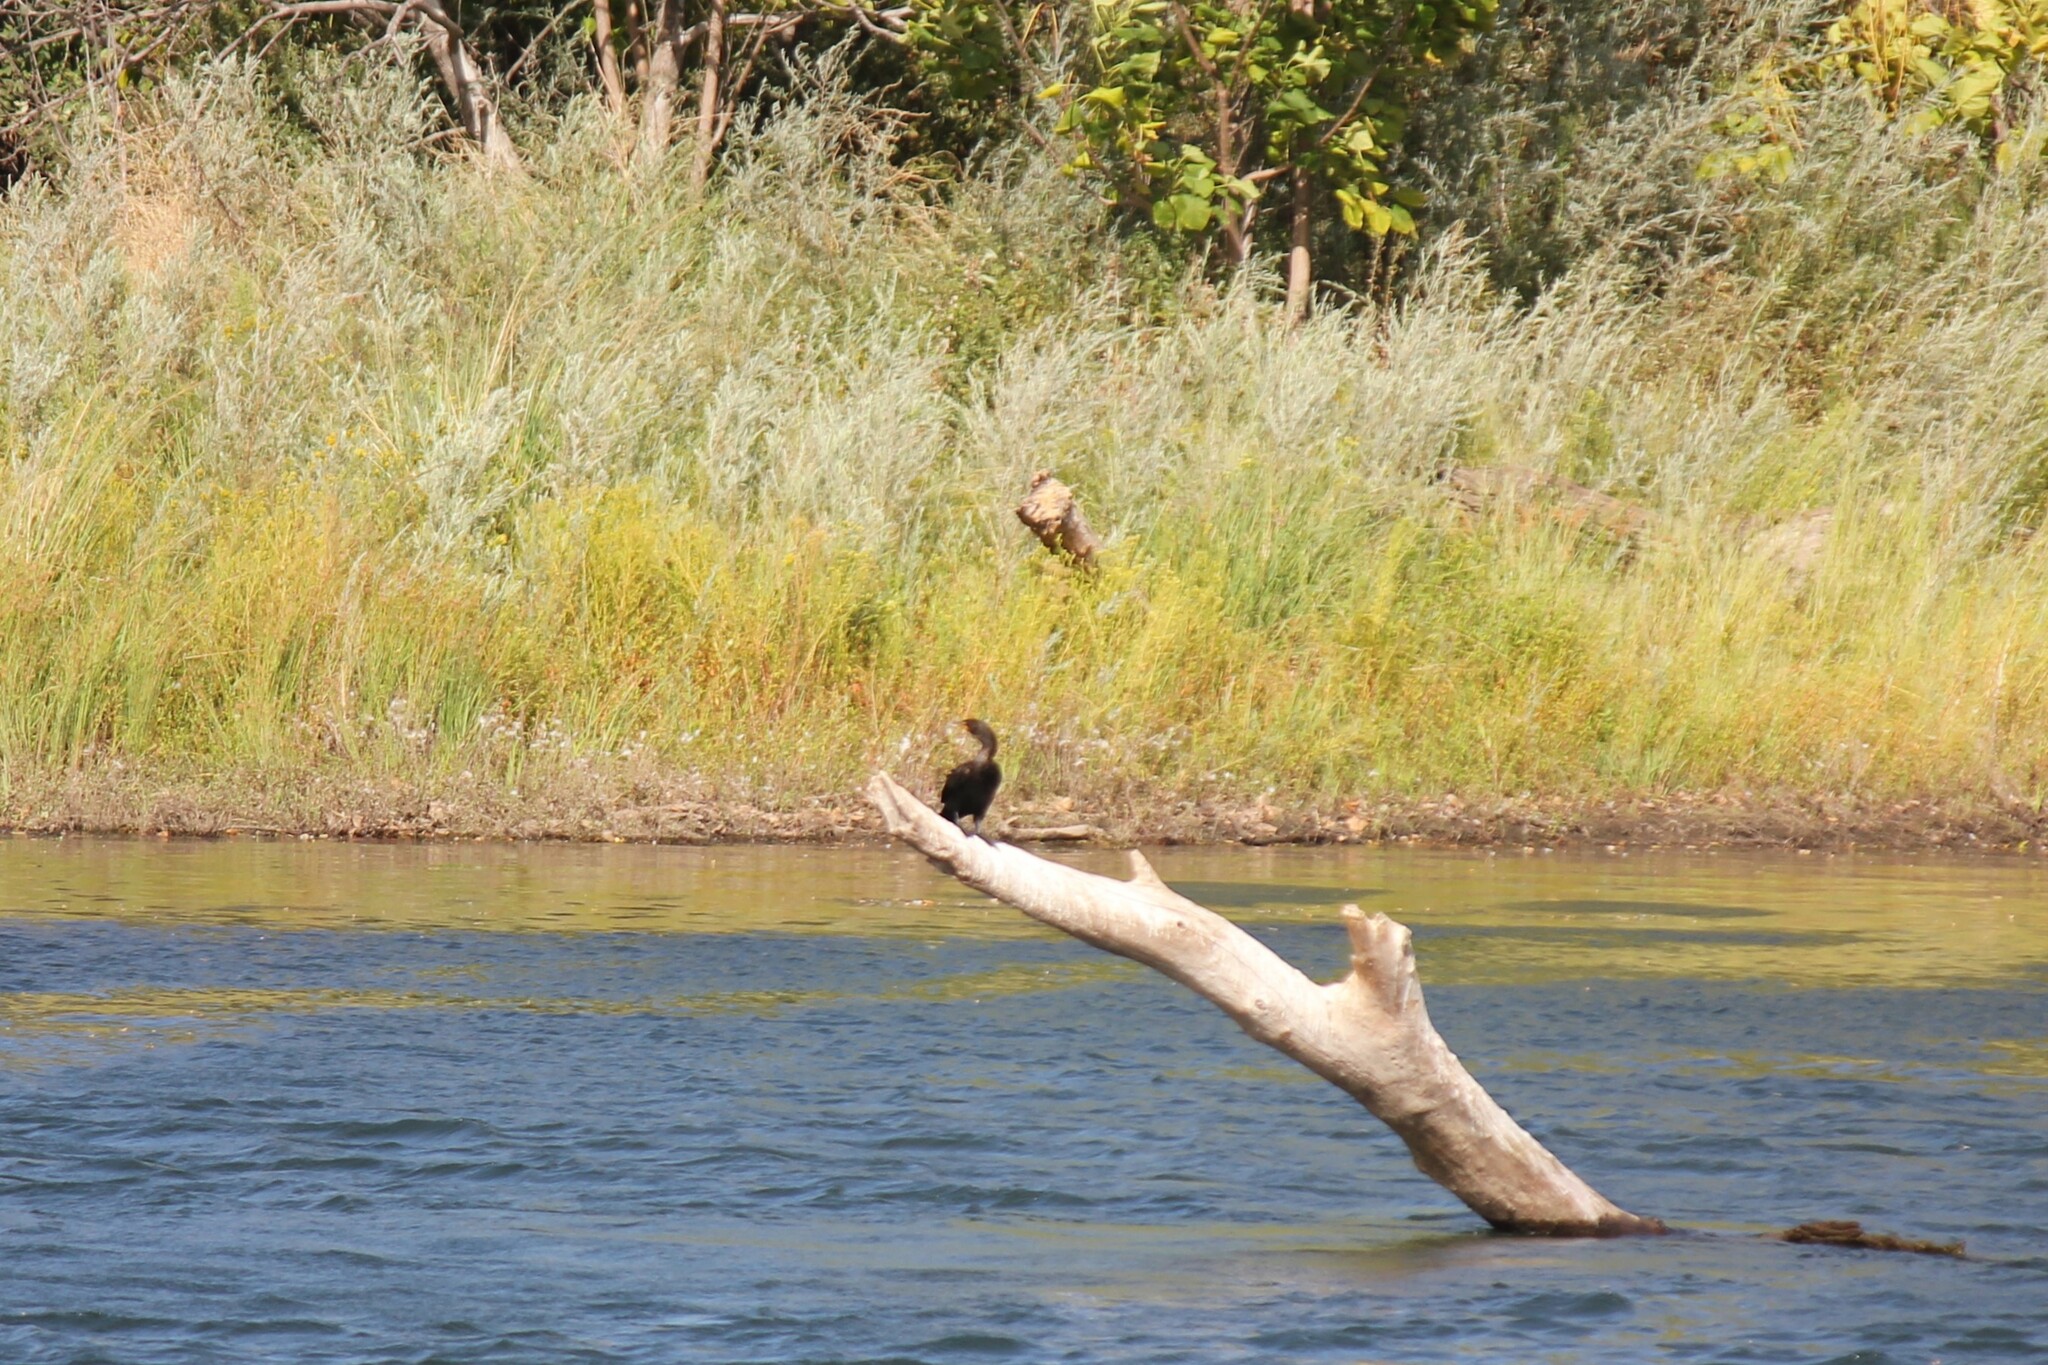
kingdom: Animalia
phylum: Chordata
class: Aves
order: Suliformes
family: Phalacrocoracidae
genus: Phalacrocorax
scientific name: Phalacrocorax auritus
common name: Double-crested cormorant
